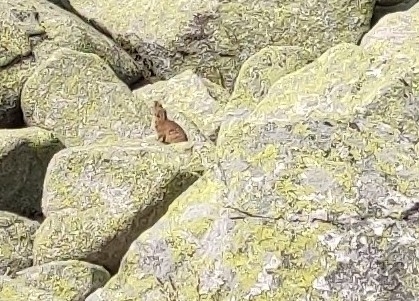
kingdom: Animalia
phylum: Chordata
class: Mammalia
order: Lagomorpha
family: Ochotonidae
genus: Ochotona
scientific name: Ochotona alpina
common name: Alpine pika
